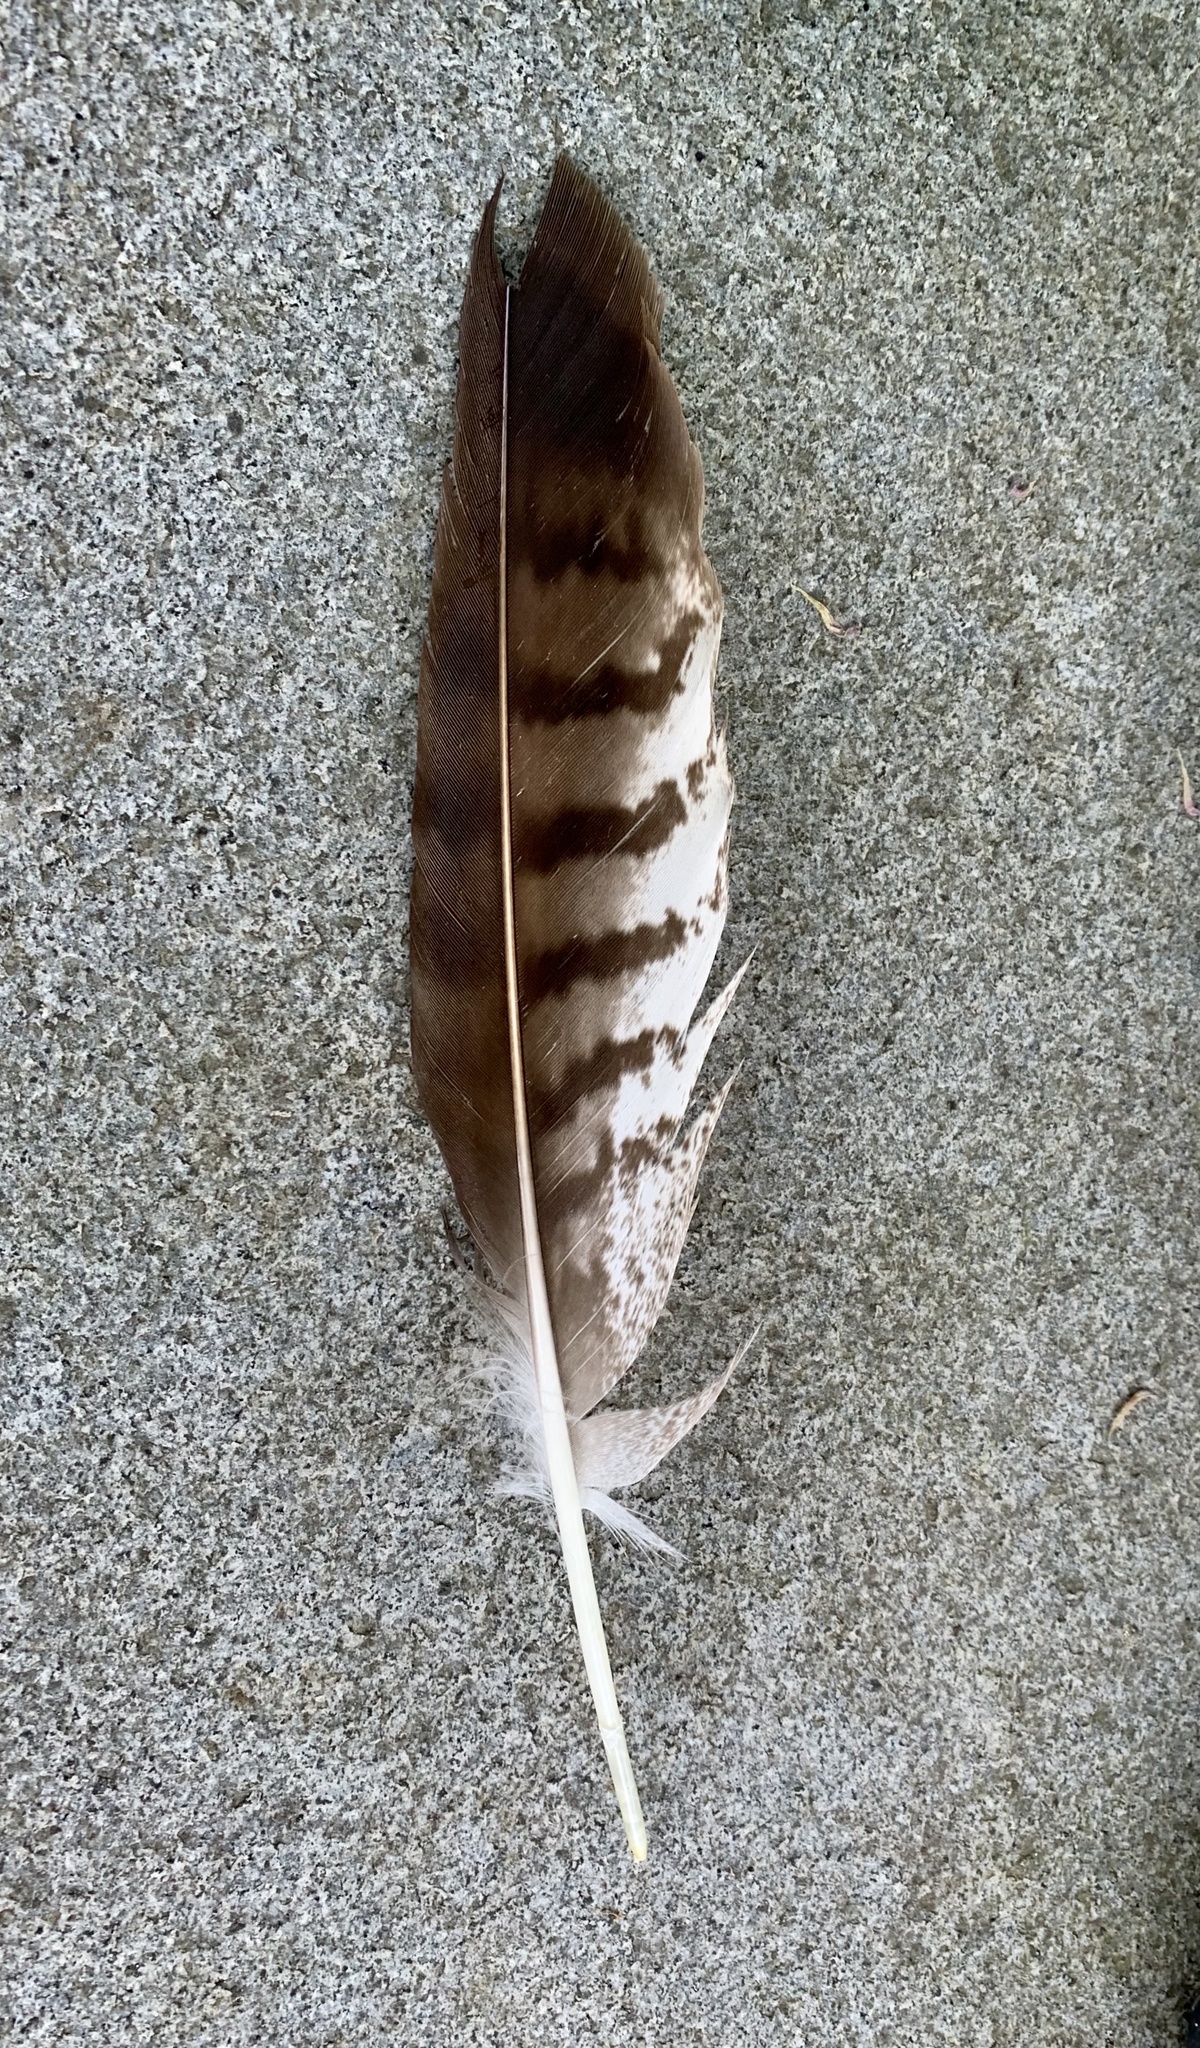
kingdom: Animalia
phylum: Chordata
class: Aves
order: Accipitriformes
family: Accipitridae
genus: Buteo
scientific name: Buteo buteo
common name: Common buzzard
